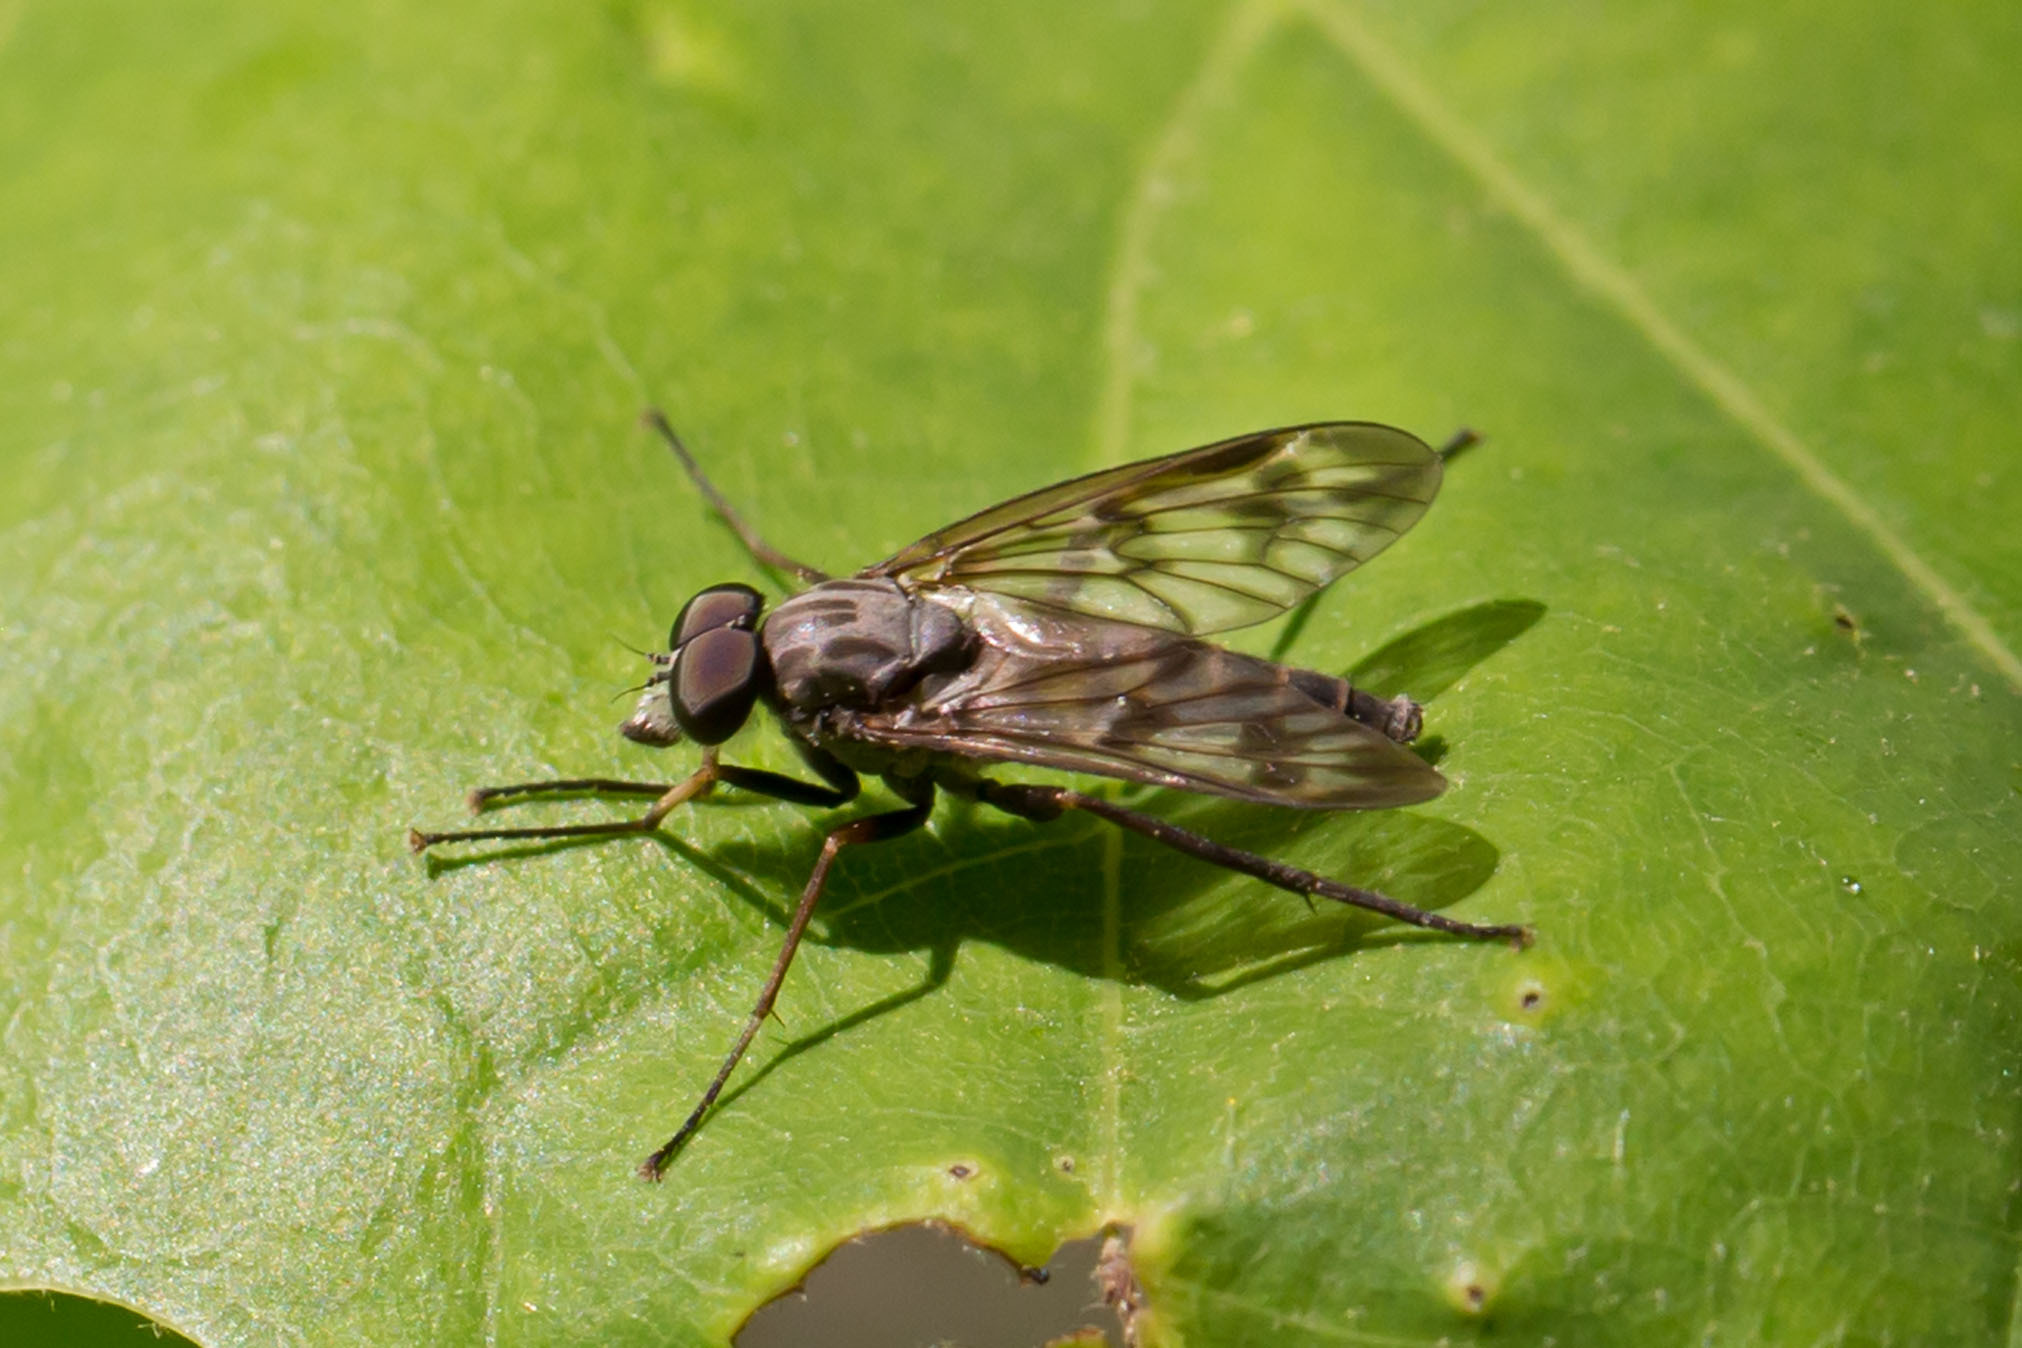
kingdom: Animalia
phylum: Arthropoda
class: Insecta
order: Diptera
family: Rhagionidae
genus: Rhagio
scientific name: Rhagio mystaceus
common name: Common snipe fly
